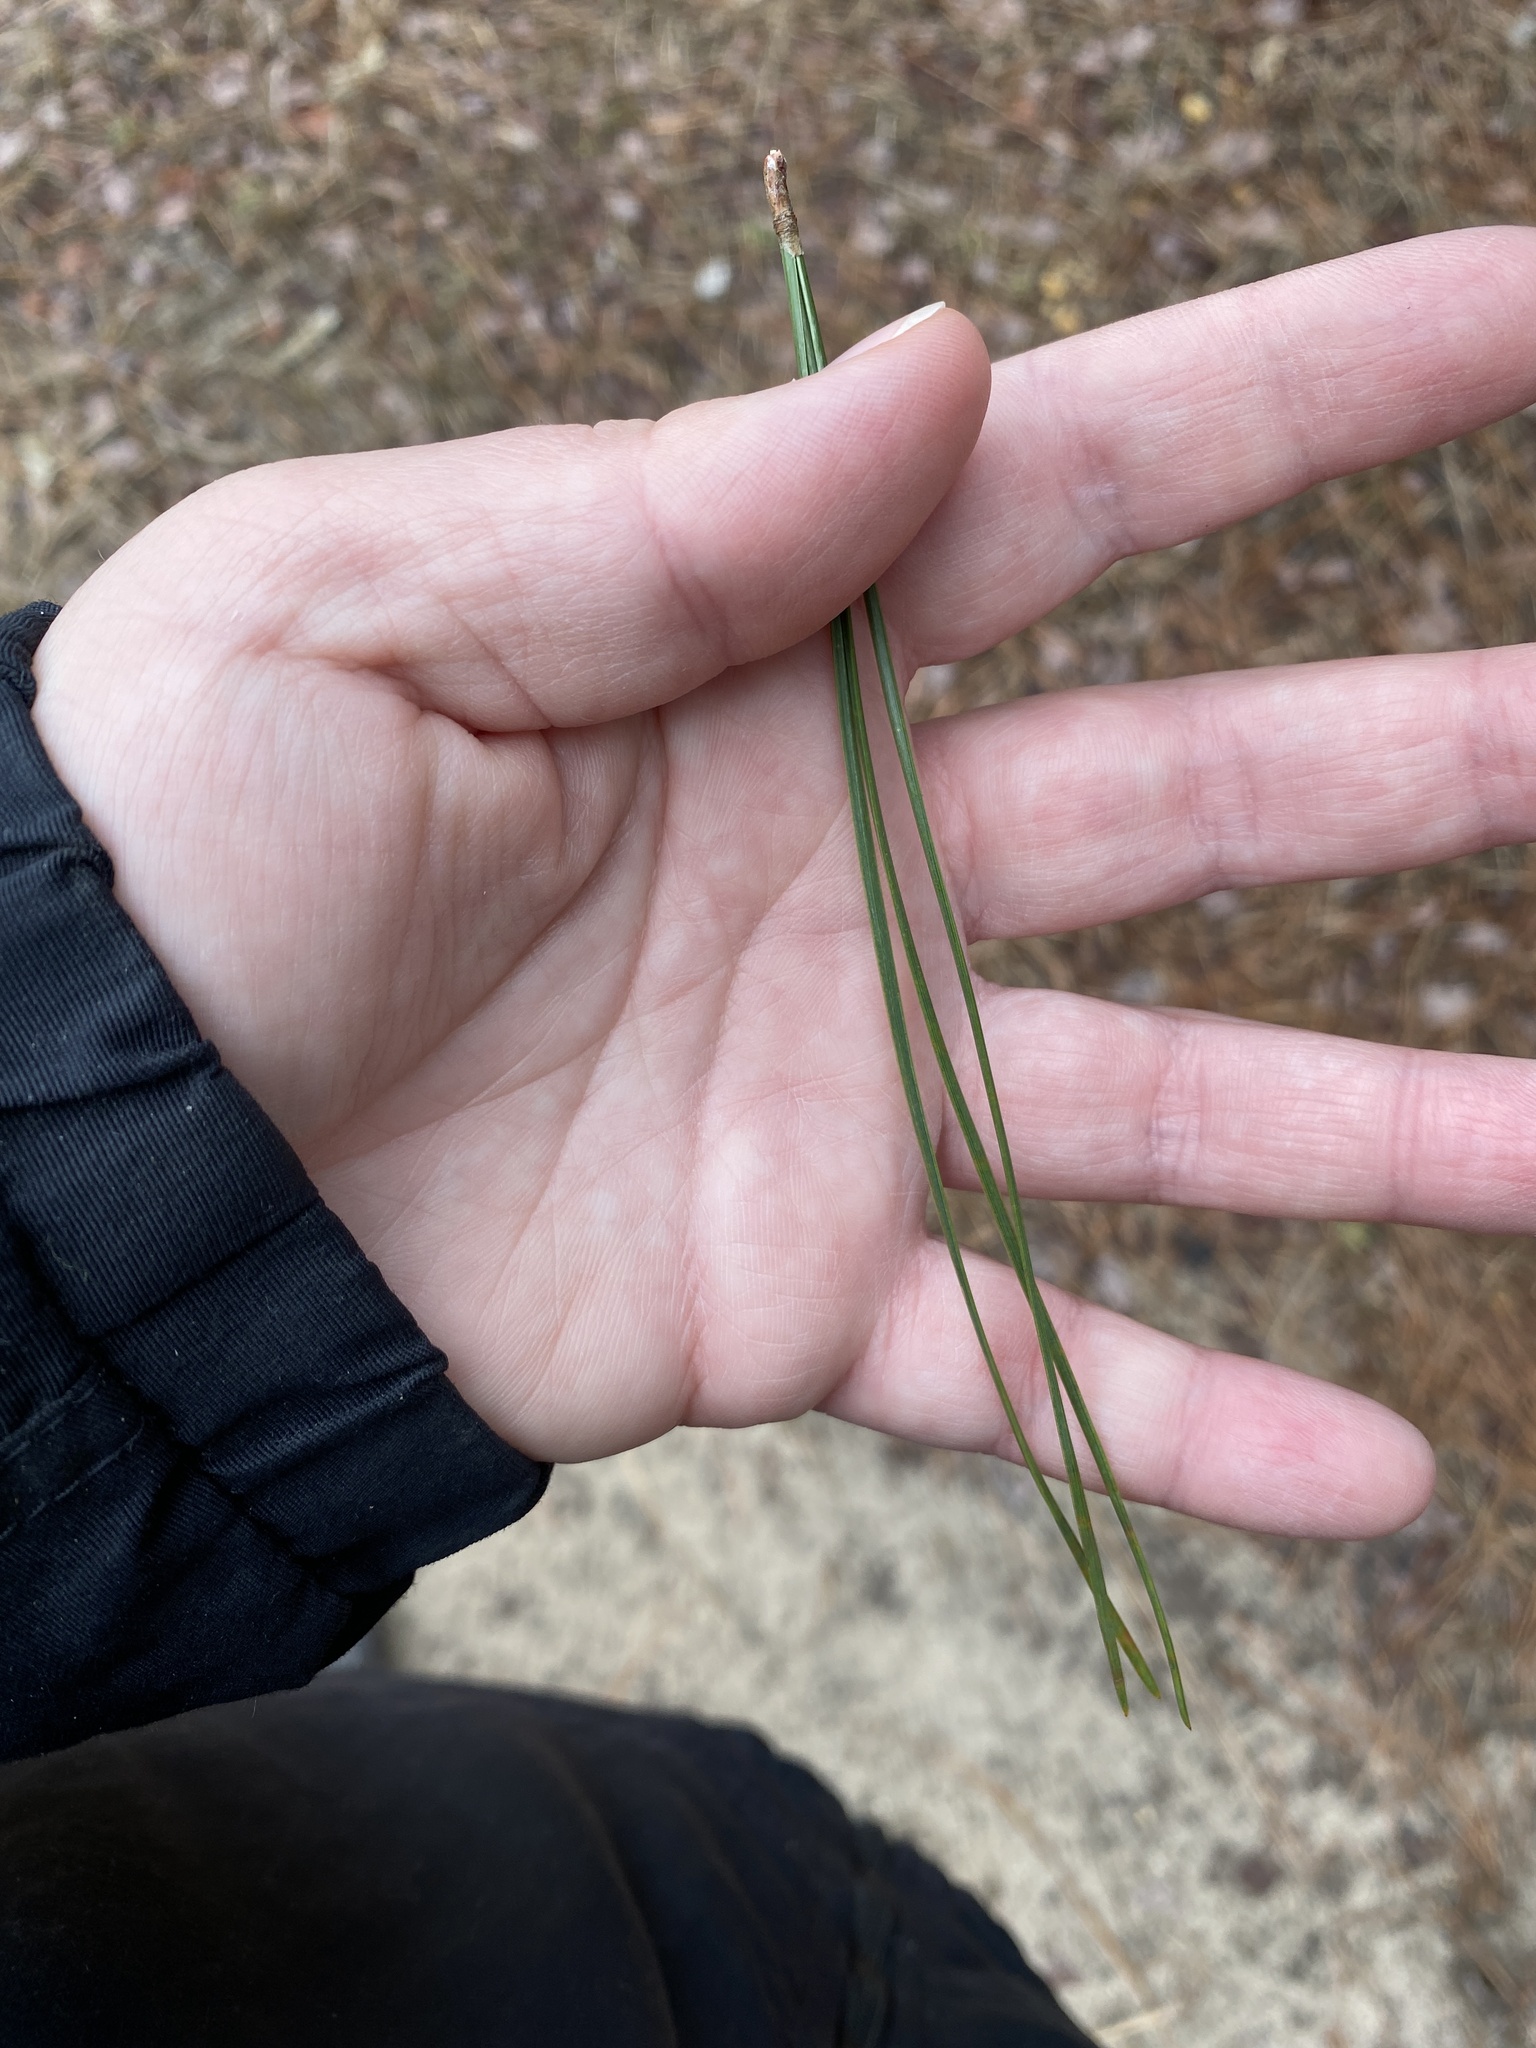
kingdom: Plantae
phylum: Tracheophyta
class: Pinopsida
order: Pinales
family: Pinaceae
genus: Pinus
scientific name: Pinus rigida
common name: Pitch pine
